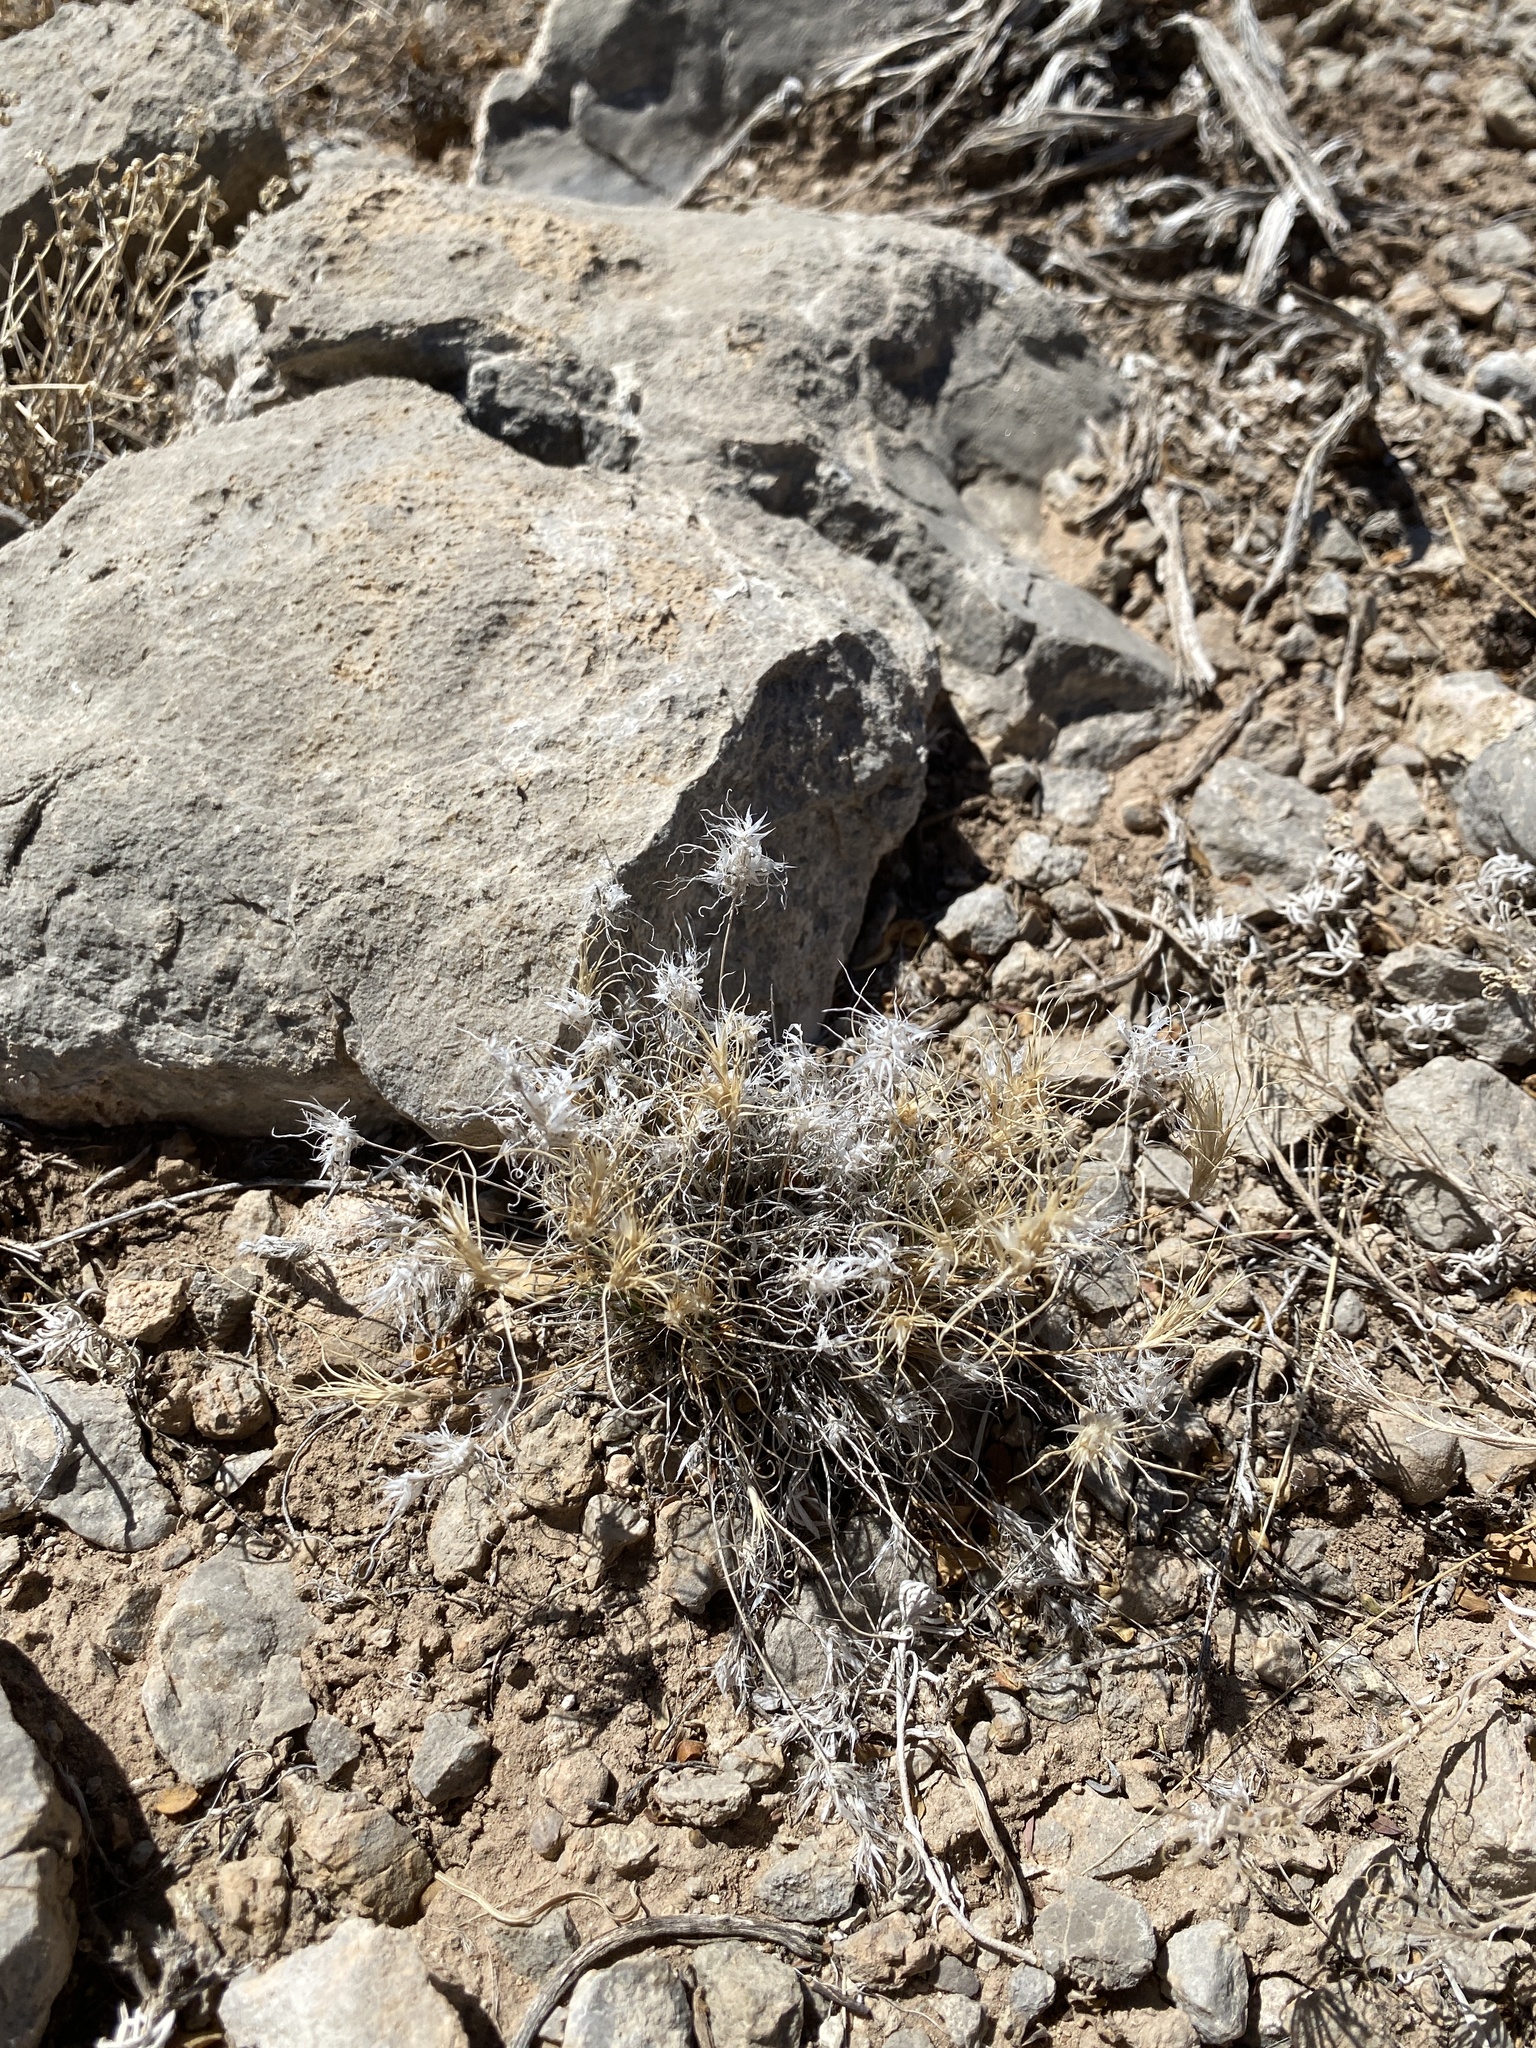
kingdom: Plantae
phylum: Tracheophyta
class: Liliopsida
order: Poales
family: Poaceae
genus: Dasyochloa
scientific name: Dasyochloa pulchella
